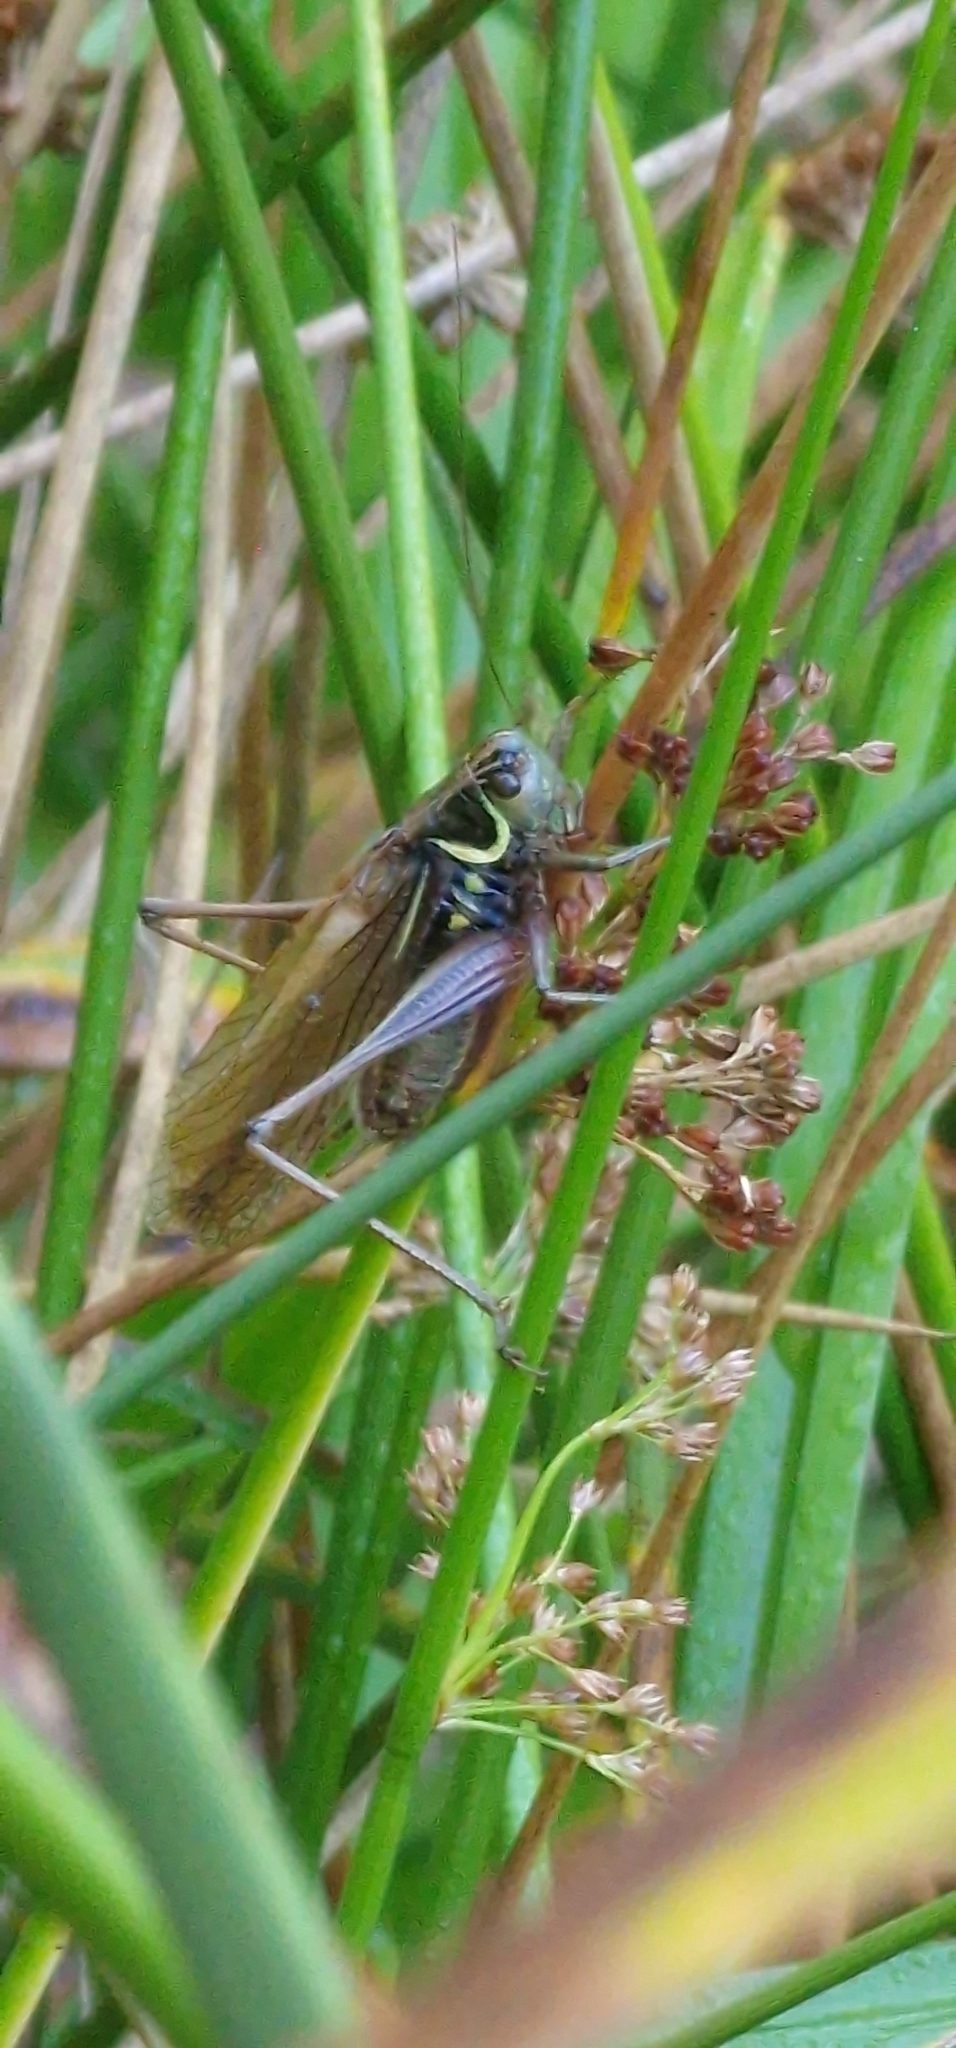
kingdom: Animalia
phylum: Arthropoda
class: Insecta
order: Orthoptera
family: Tettigoniidae
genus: Roeseliana
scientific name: Roeseliana roeselii
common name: Roesel's bush cricket
